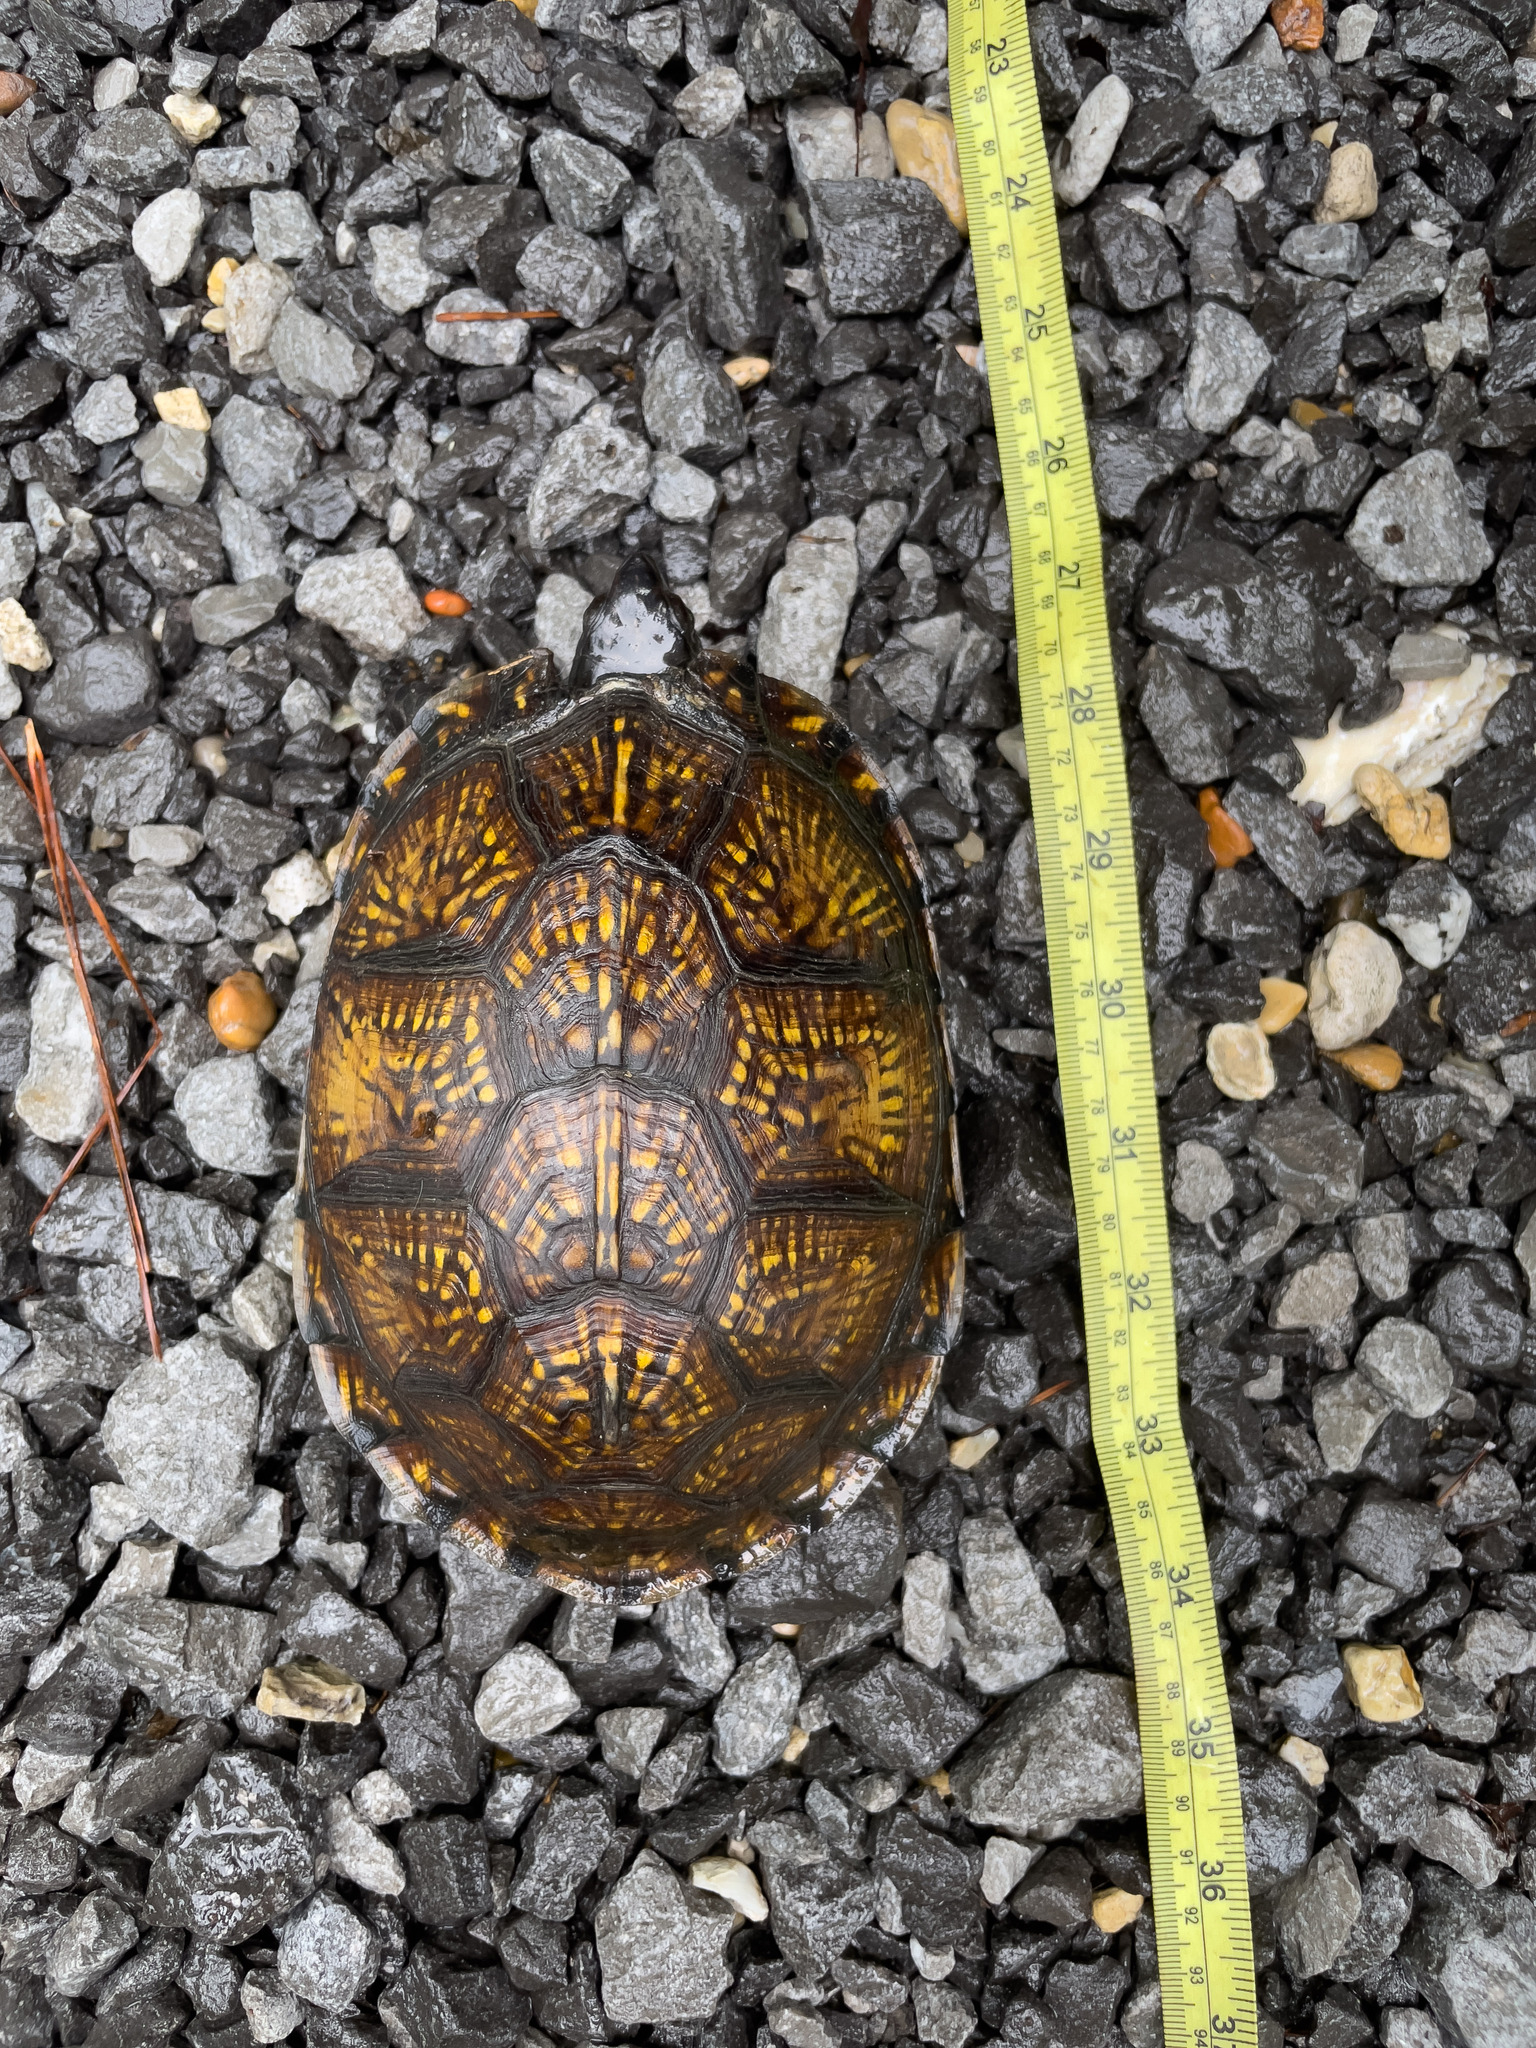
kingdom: Animalia
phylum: Chordata
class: Testudines
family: Emydidae
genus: Terrapene
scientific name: Terrapene carolina
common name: Common box turtle
